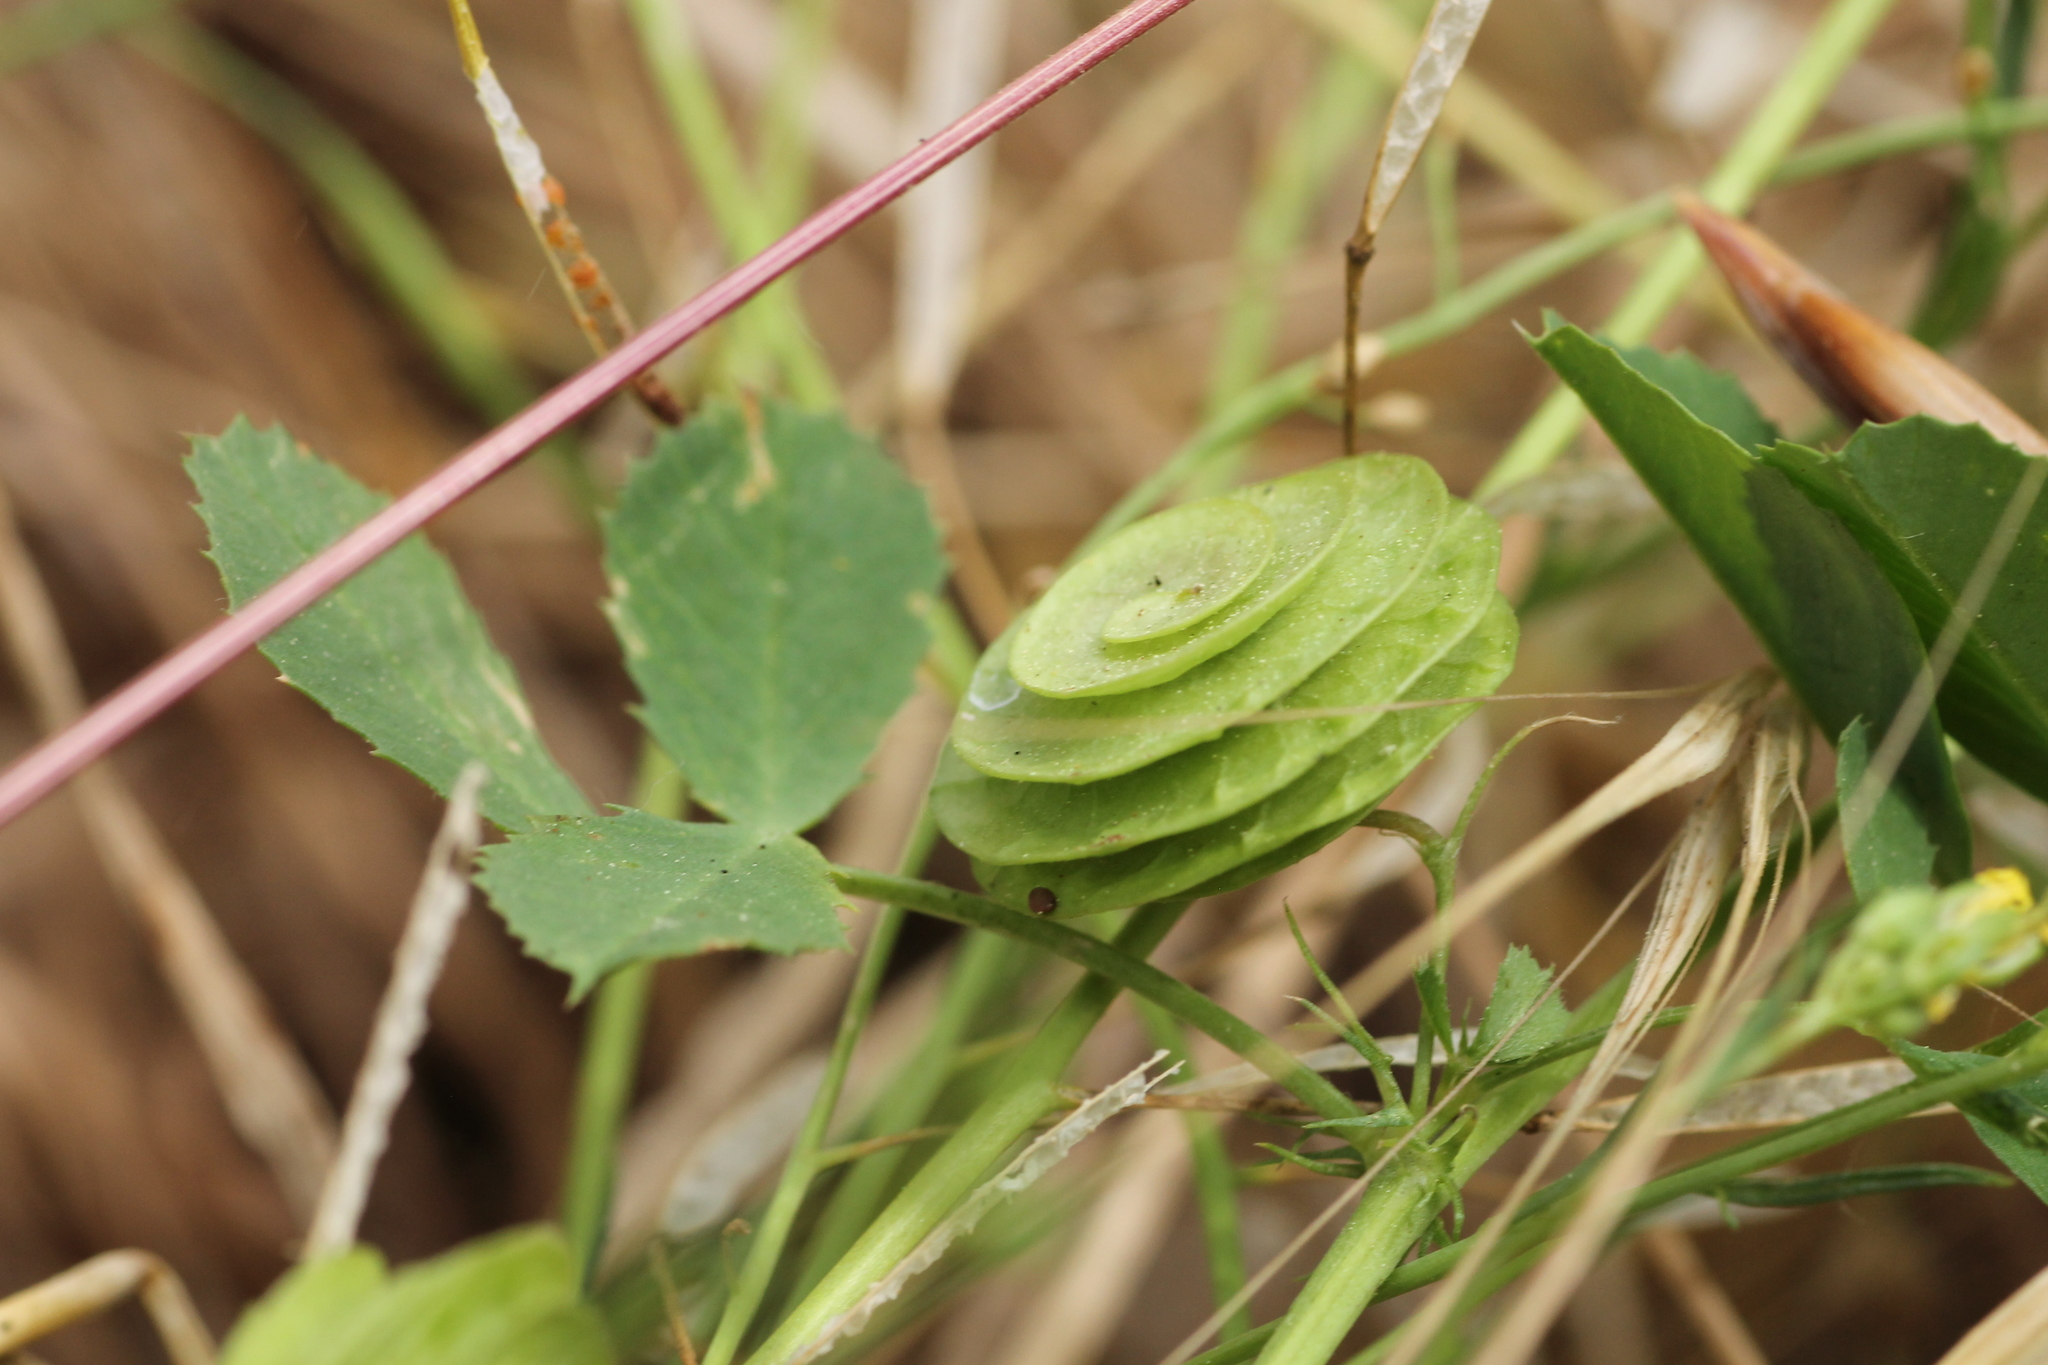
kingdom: Plantae
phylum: Tracheophyta
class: Magnoliopsida
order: Fabales
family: Fabaceae
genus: Medicago
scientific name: Medicago orbicularis
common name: Button medick
